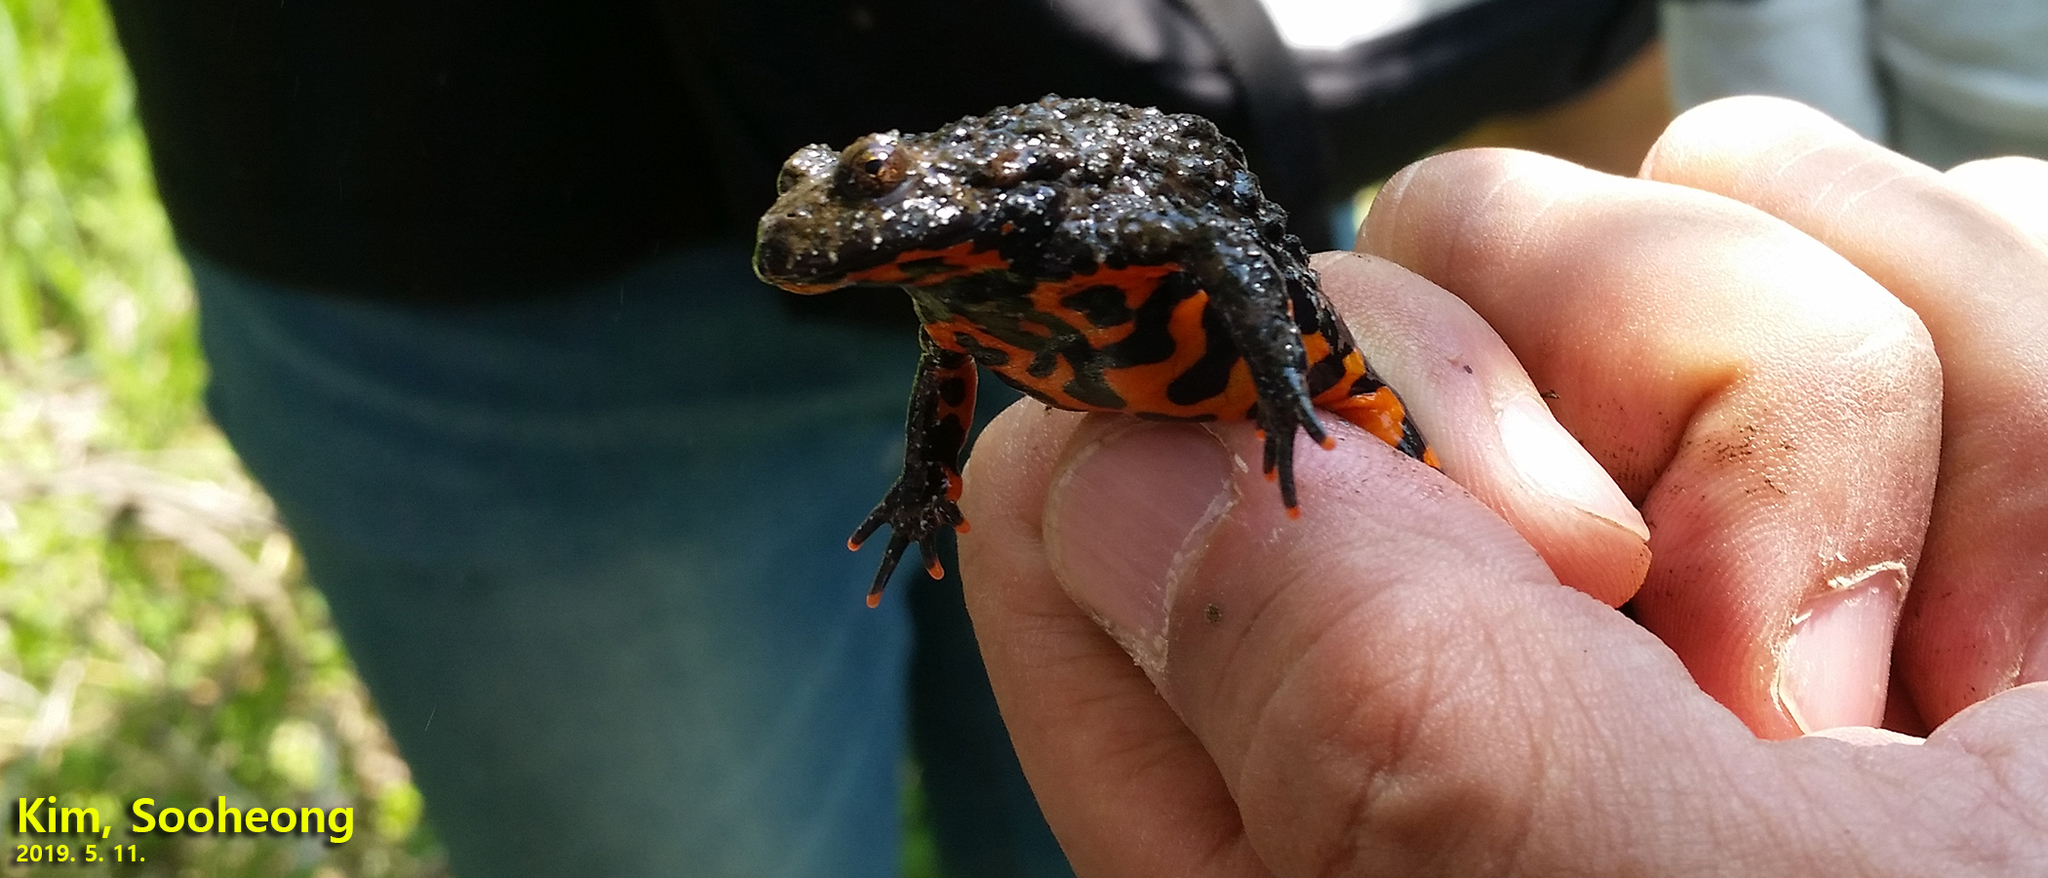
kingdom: Animalia
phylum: Chordata
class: Amphibia
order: Anura
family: Bombinatoridae
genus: Bombina
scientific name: Bombina orientalis
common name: Oriental firebelly toad
